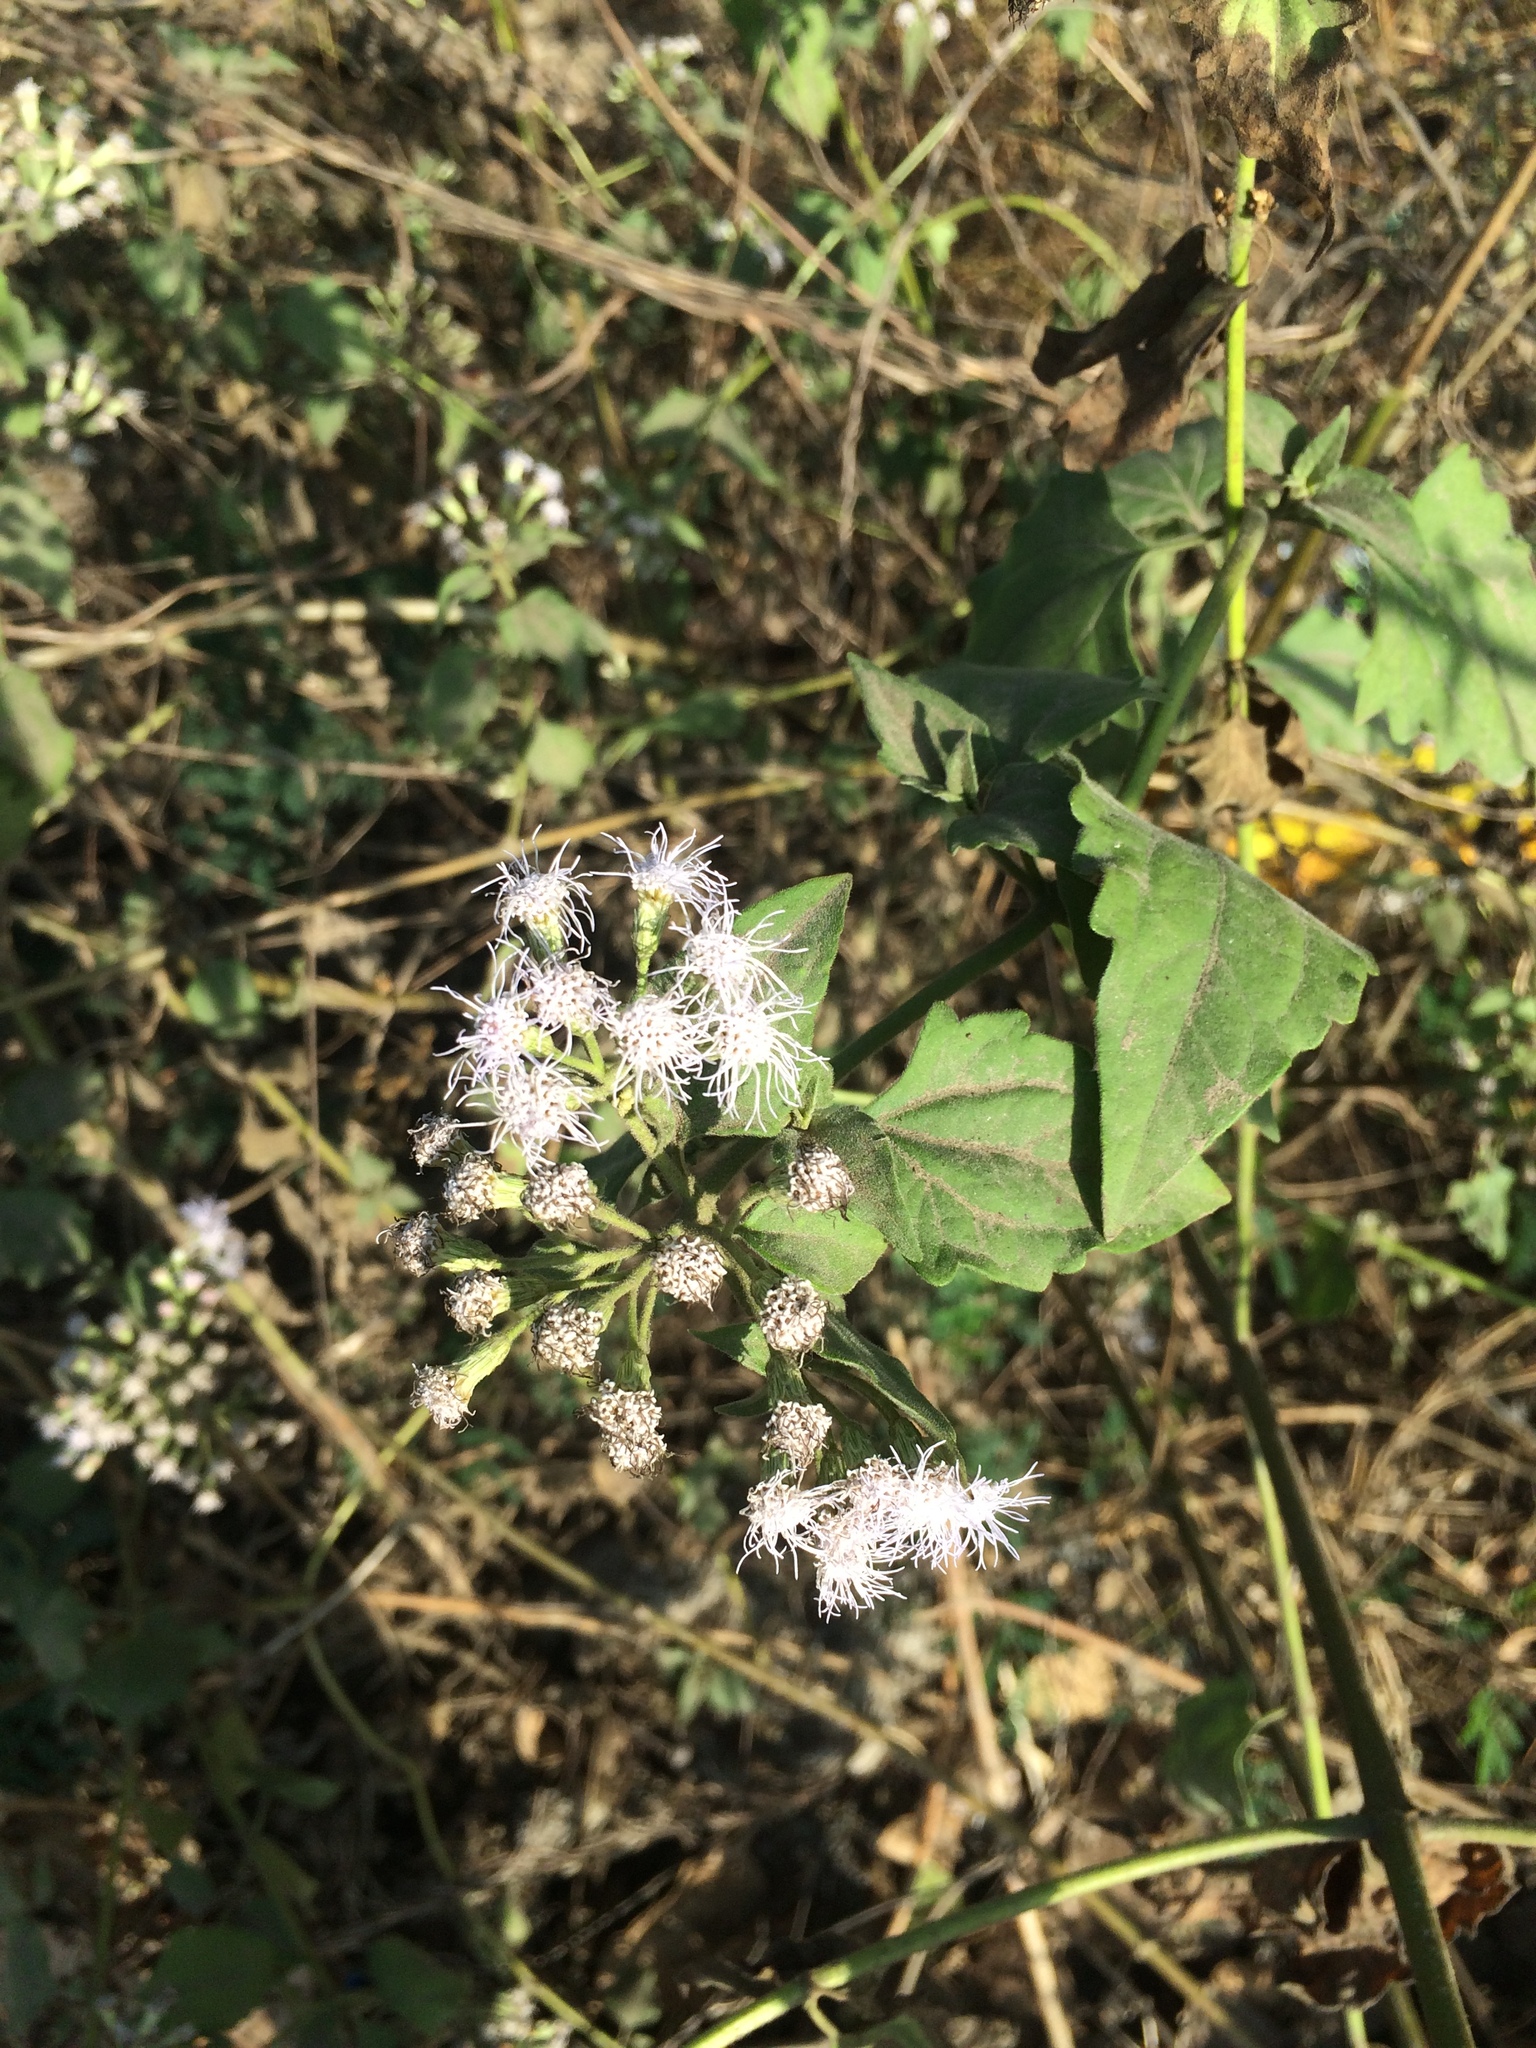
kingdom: Plantae
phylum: Tracheophyta
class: Magnoliopsida
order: Asterales
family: Asteraceae
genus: Chromolaena
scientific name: Chromolaena odorata
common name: Siamweed
